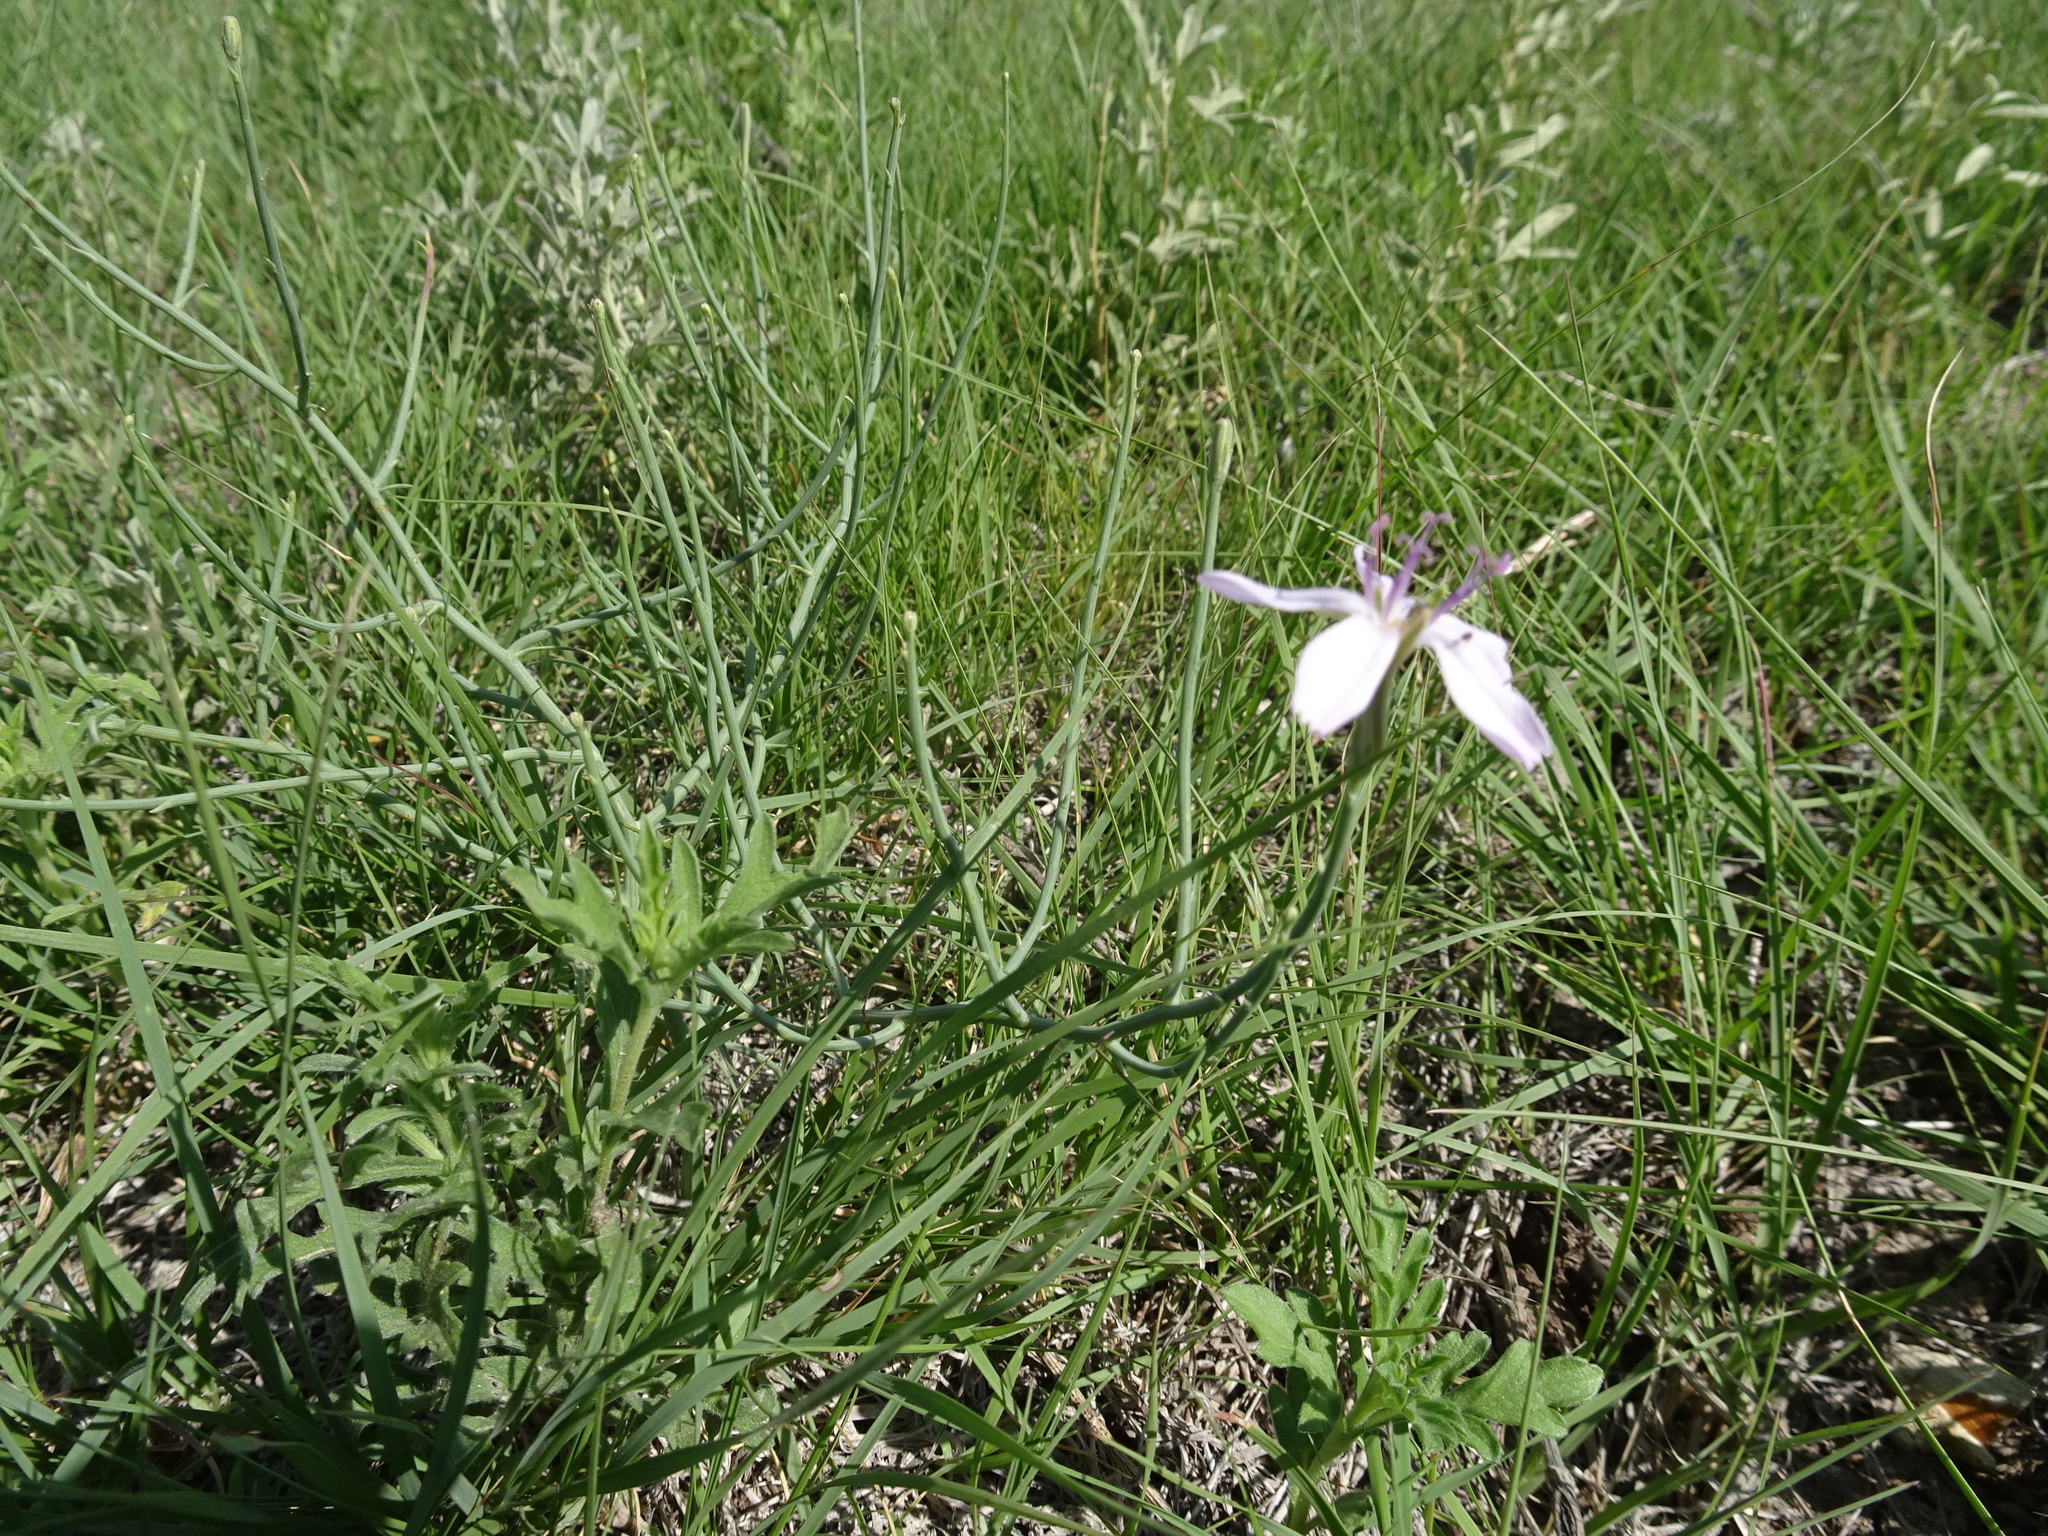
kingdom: Plantae
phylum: Tracheophyta
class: Magnoliopsida
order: Asterales
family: Asteraceae
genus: Lygodesmia
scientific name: Lygodesmia juncea
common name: Common skeletonweed
